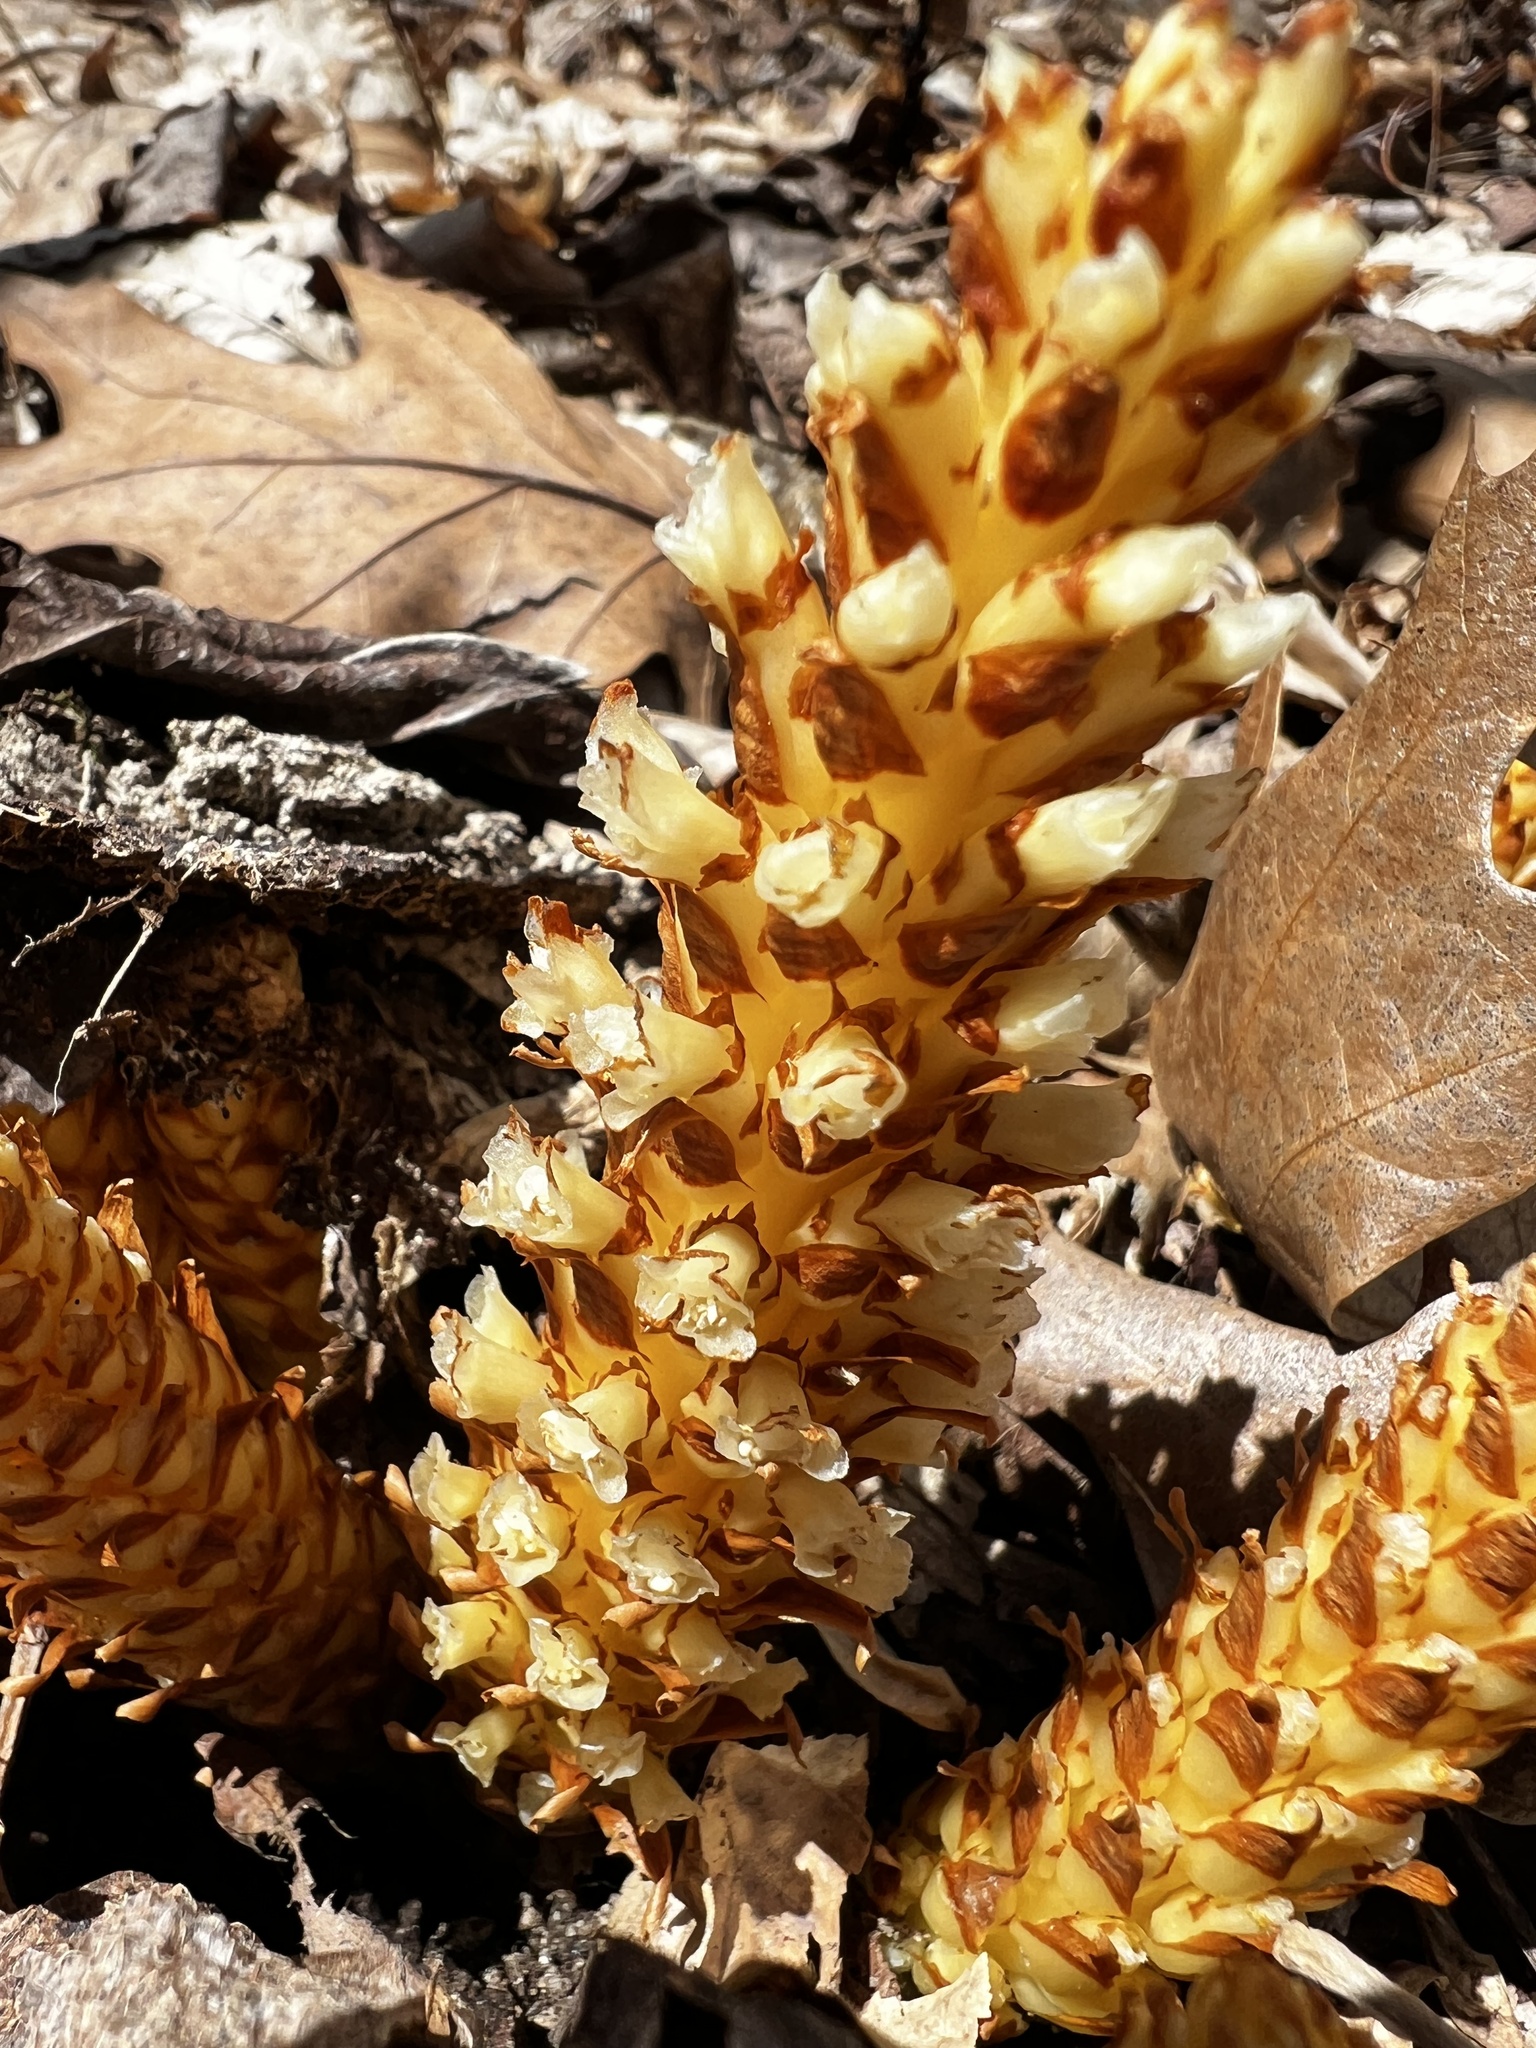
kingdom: Plantae
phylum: Tracheophyta
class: Magnoliopsida
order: Lamiales
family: Orobanchaceae
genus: Conopholis
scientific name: Conopholis americana
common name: American cancer-root
